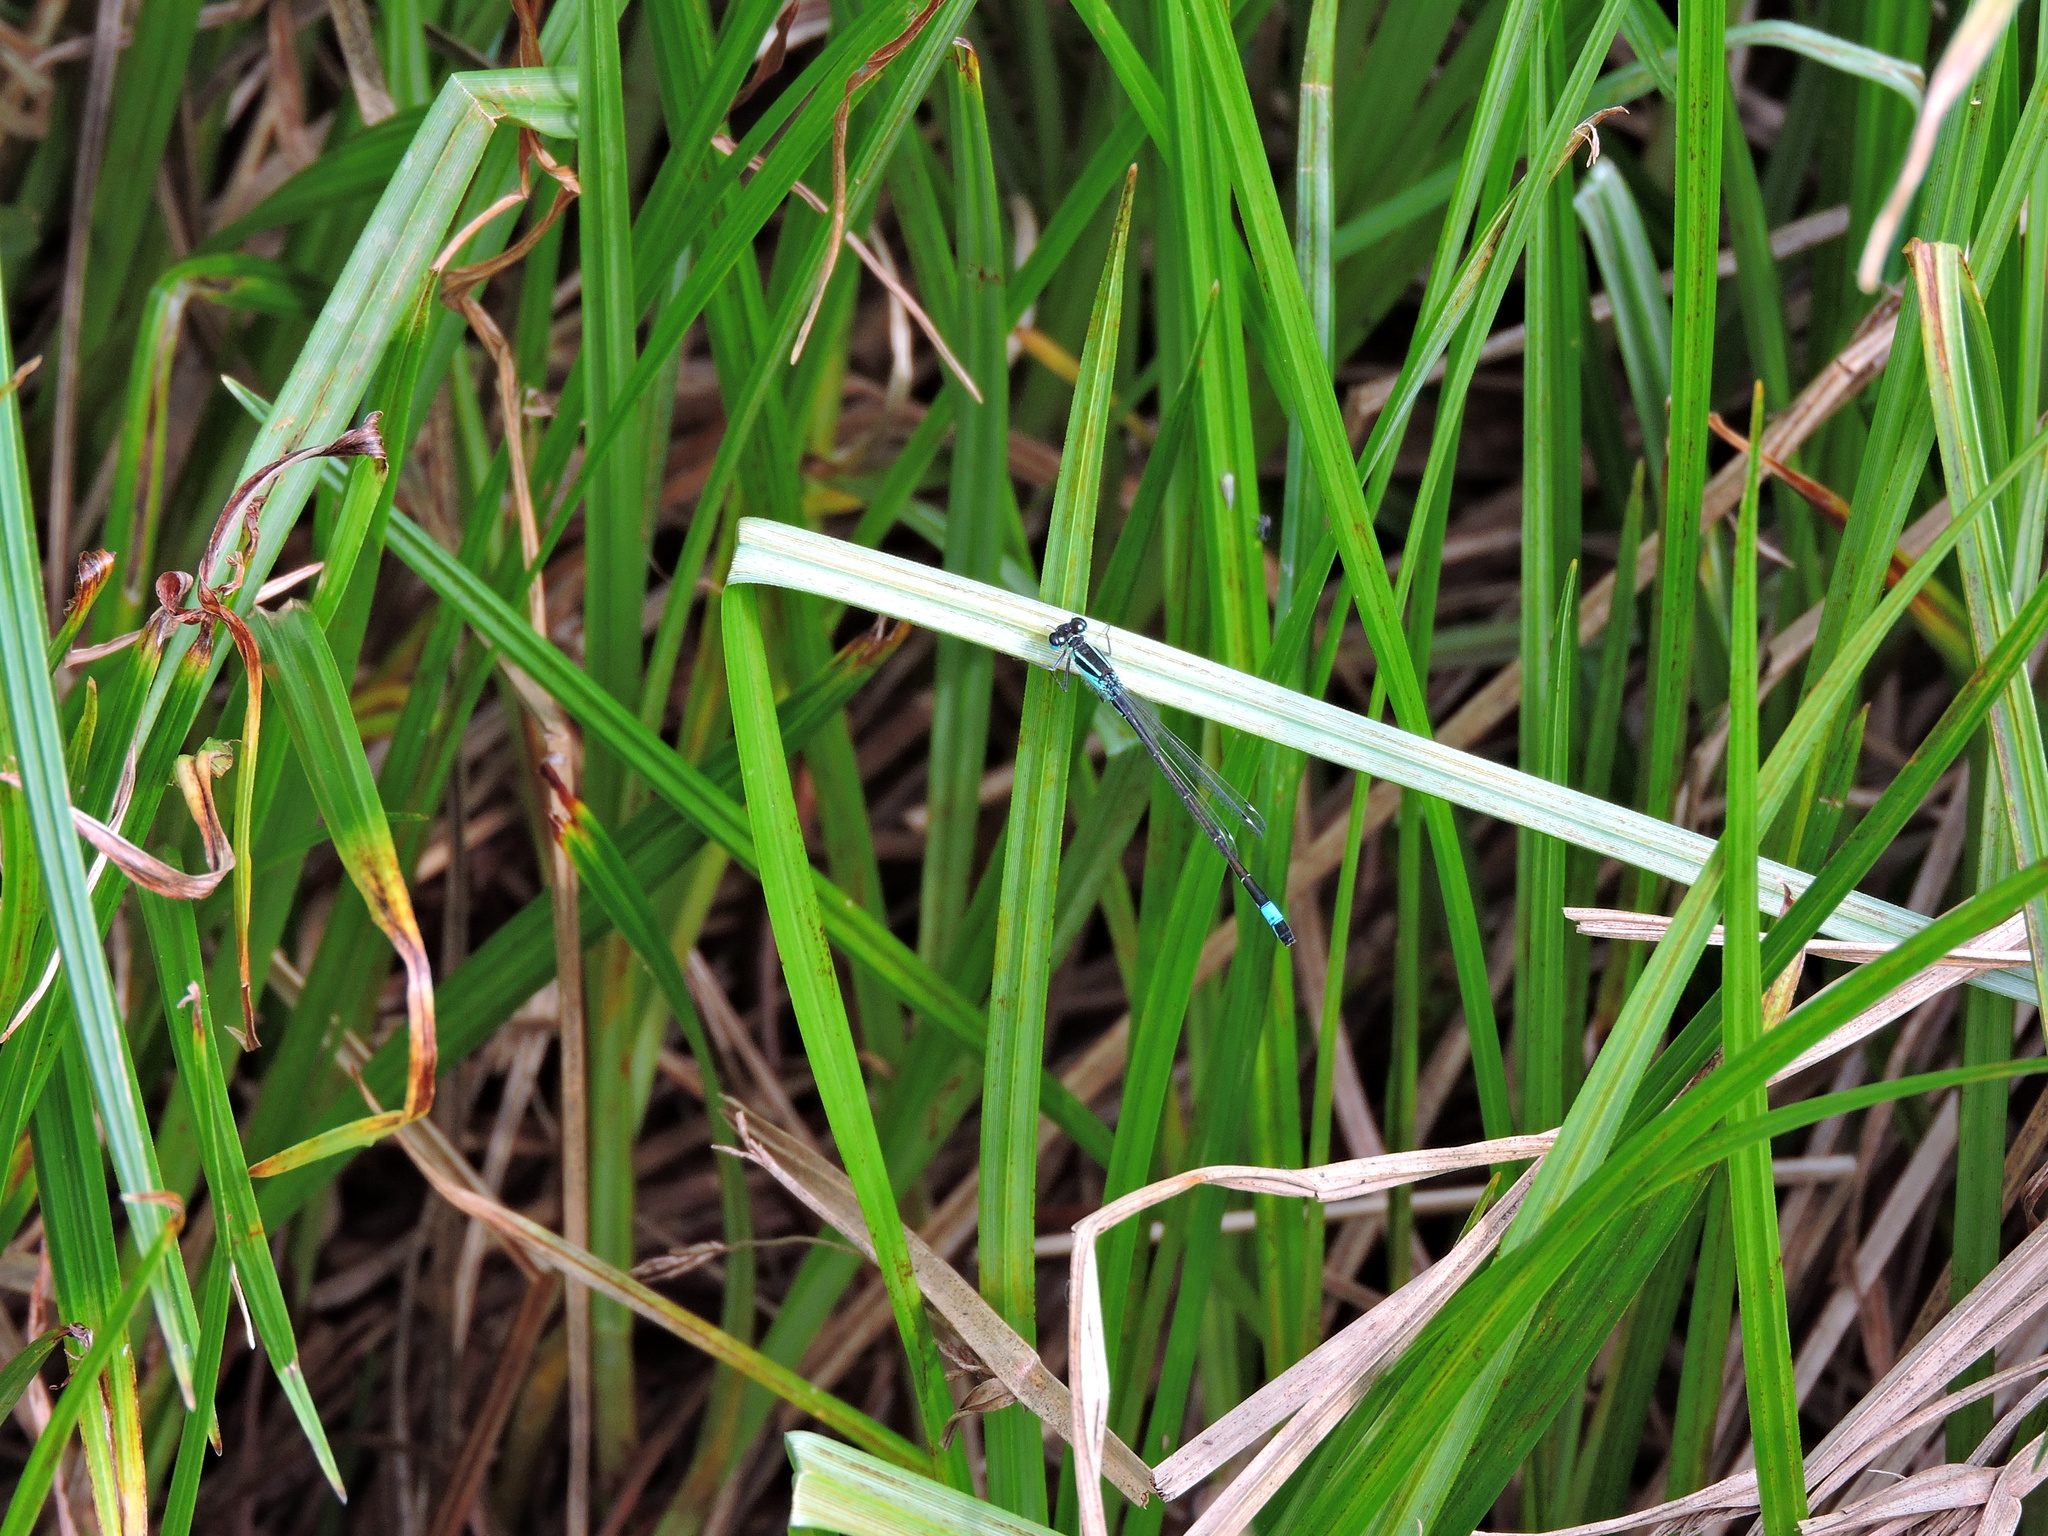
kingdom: Animalia
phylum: Arthropoda
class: Insecta
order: Odonata
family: Coenagrionidae
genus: Ischnura
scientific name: Ischnura elegans
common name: Blue-tailed damselfly
